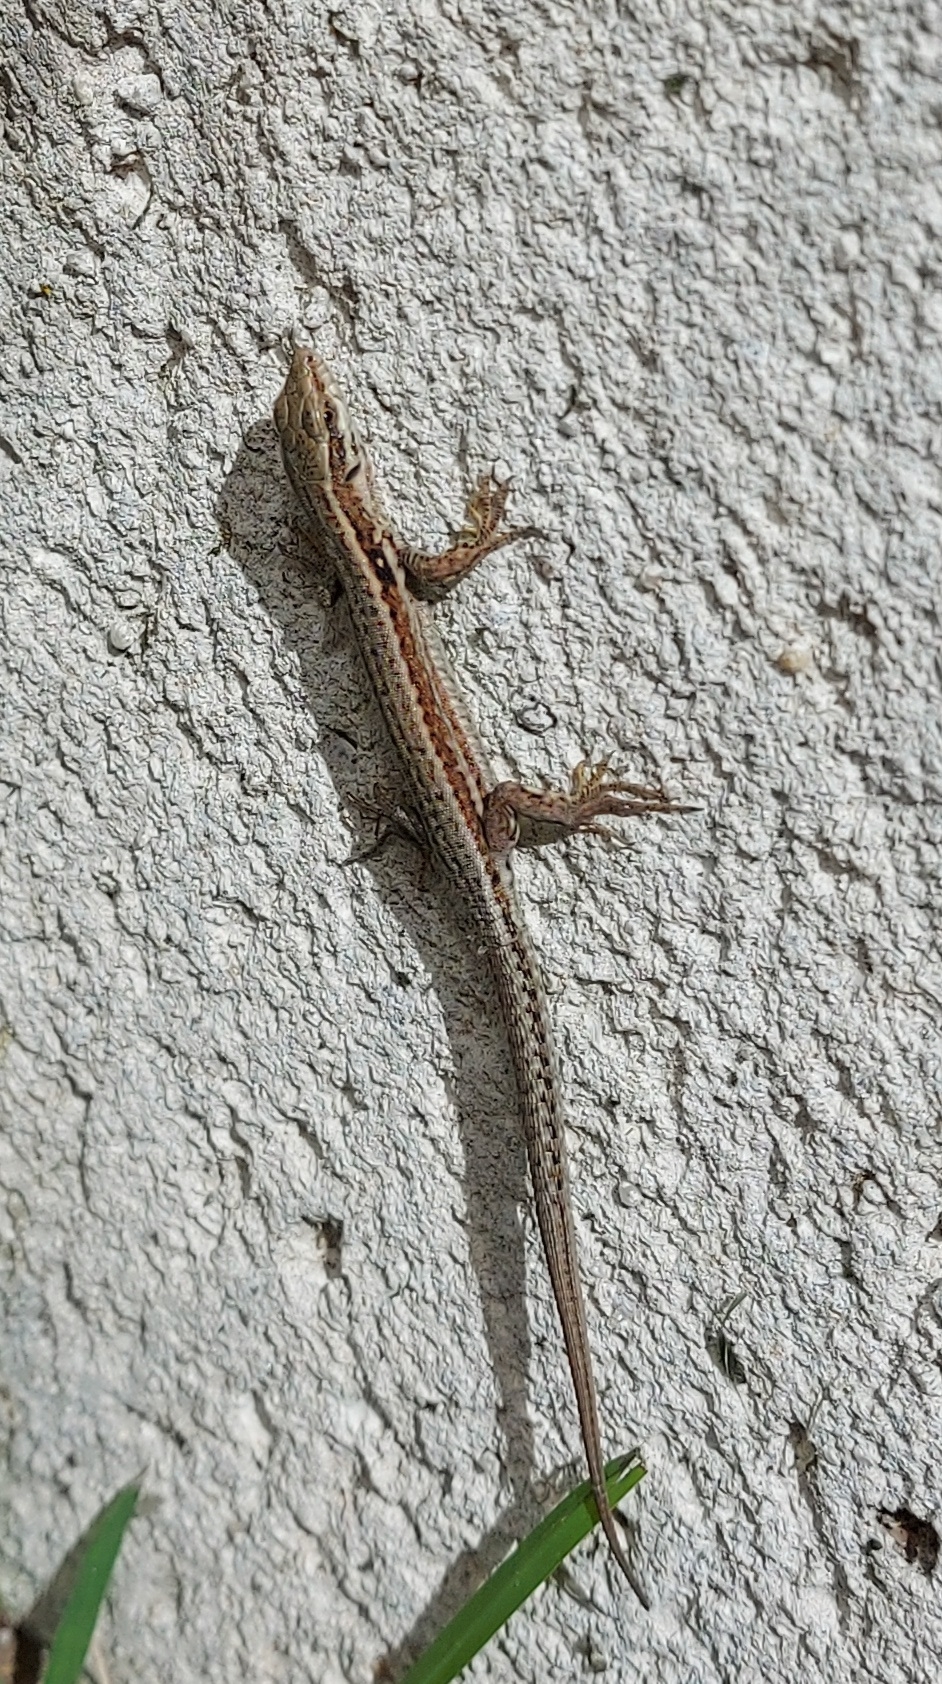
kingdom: Animalia
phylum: Chordata
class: Squamata
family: Lacertidae
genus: Podarcis
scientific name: Podarcis muralis
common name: Common wall lizard
